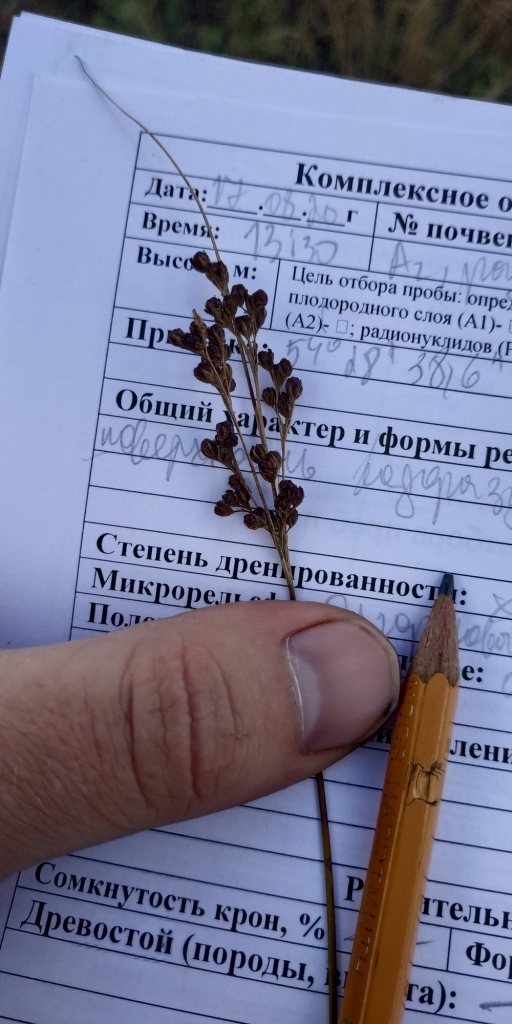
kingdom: Plantae
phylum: Tracheophyta
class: Liliopsida
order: Poales
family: Juncaceae
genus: Juncus
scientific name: Juncus compressus
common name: Round-fruited rush
